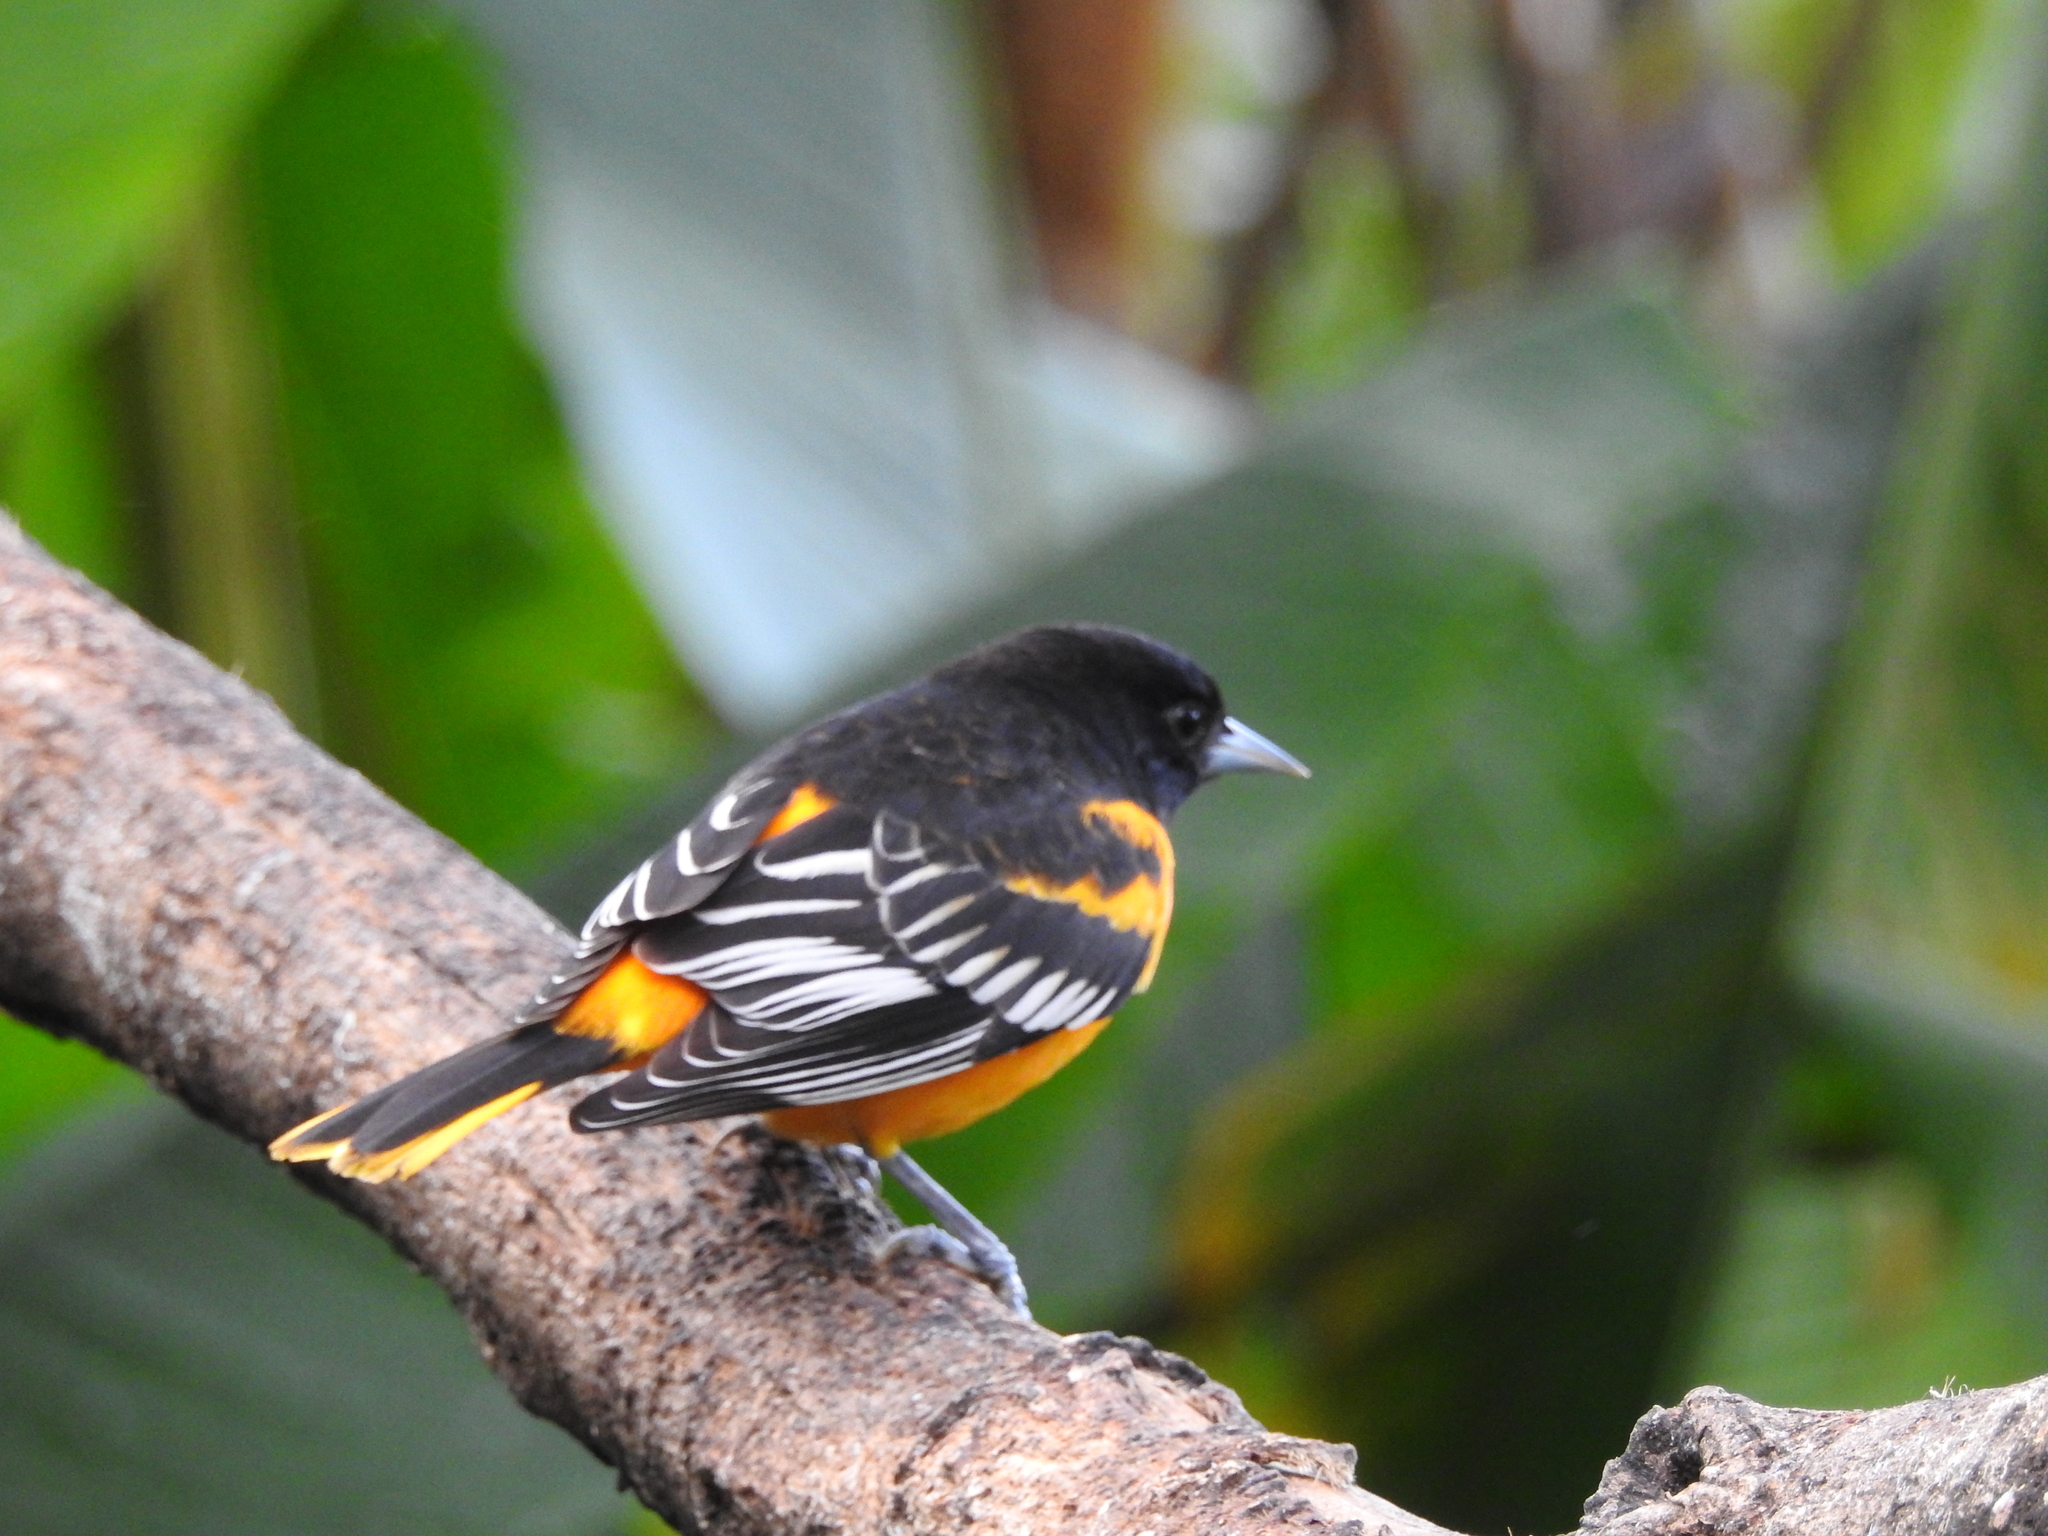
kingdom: Animalia
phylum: Chordata
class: Aves
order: Passeriformes
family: Icteridae
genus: Icterus
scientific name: Icterus galbula
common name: Baltimore oriole
